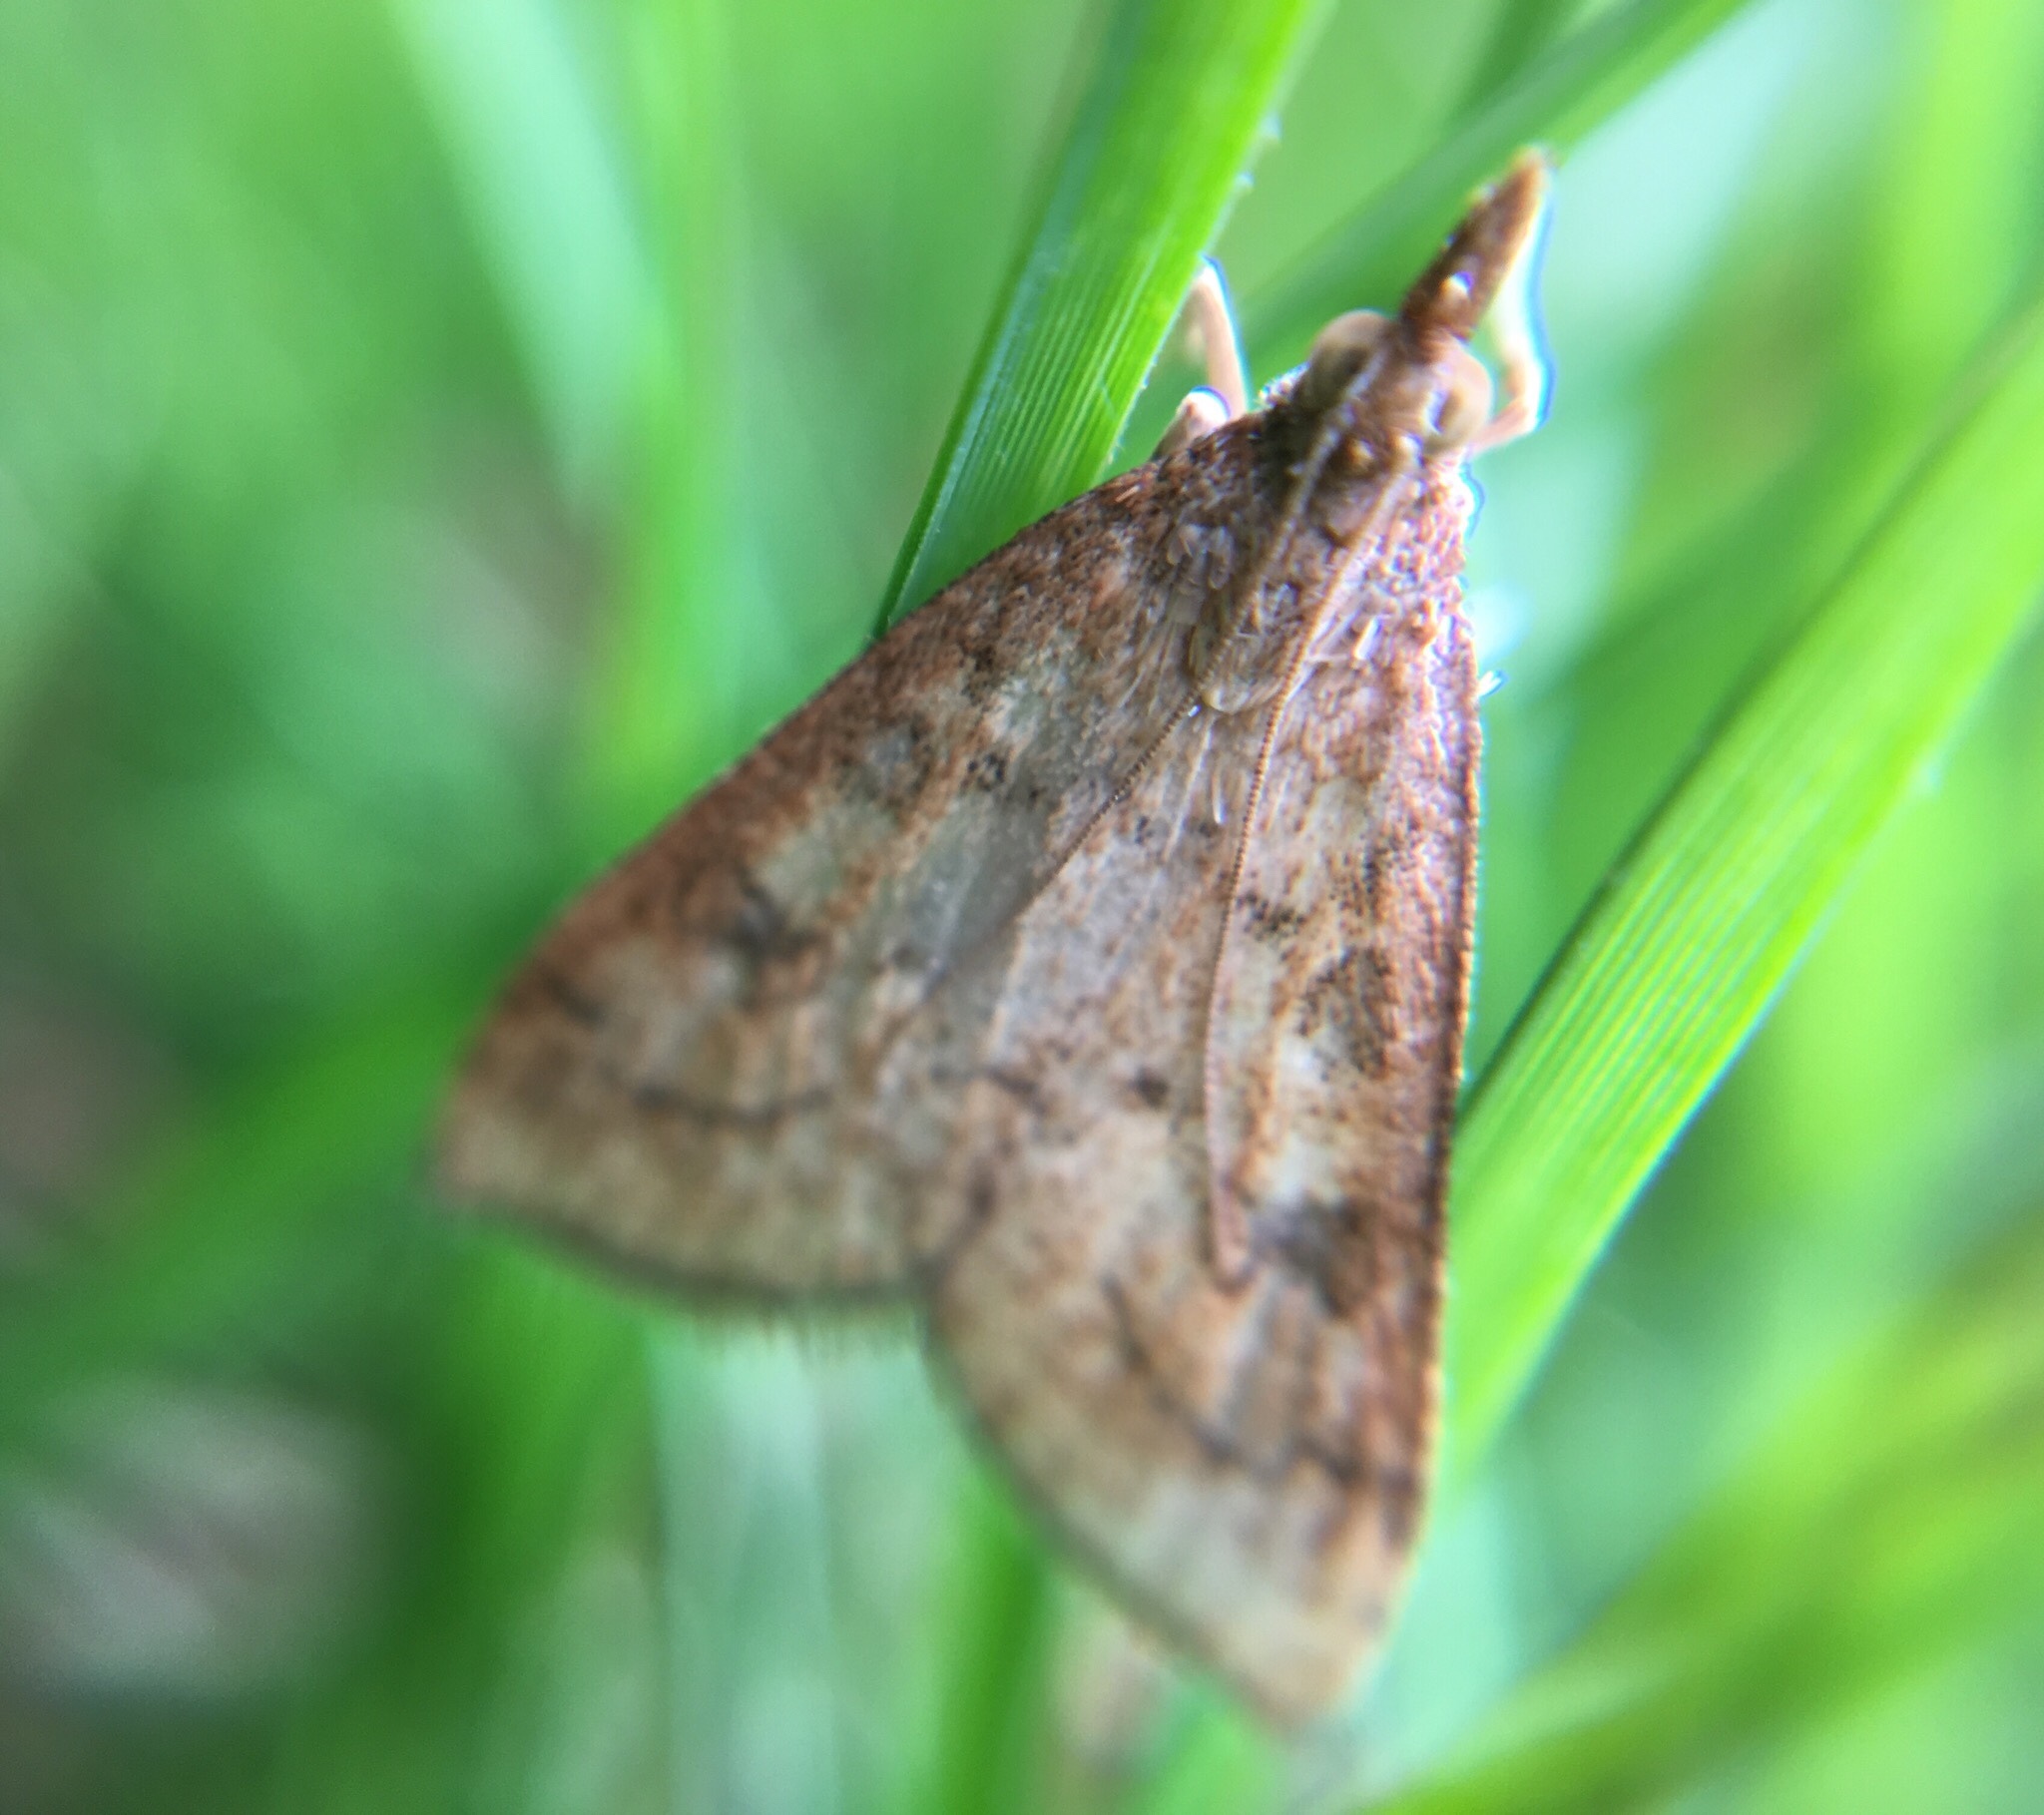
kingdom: Animalia
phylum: Arthropoda
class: Insecta
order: Lepidoptera
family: Crambidae
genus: Udea
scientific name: Udea rubigalis
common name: Celery leaftier moth
